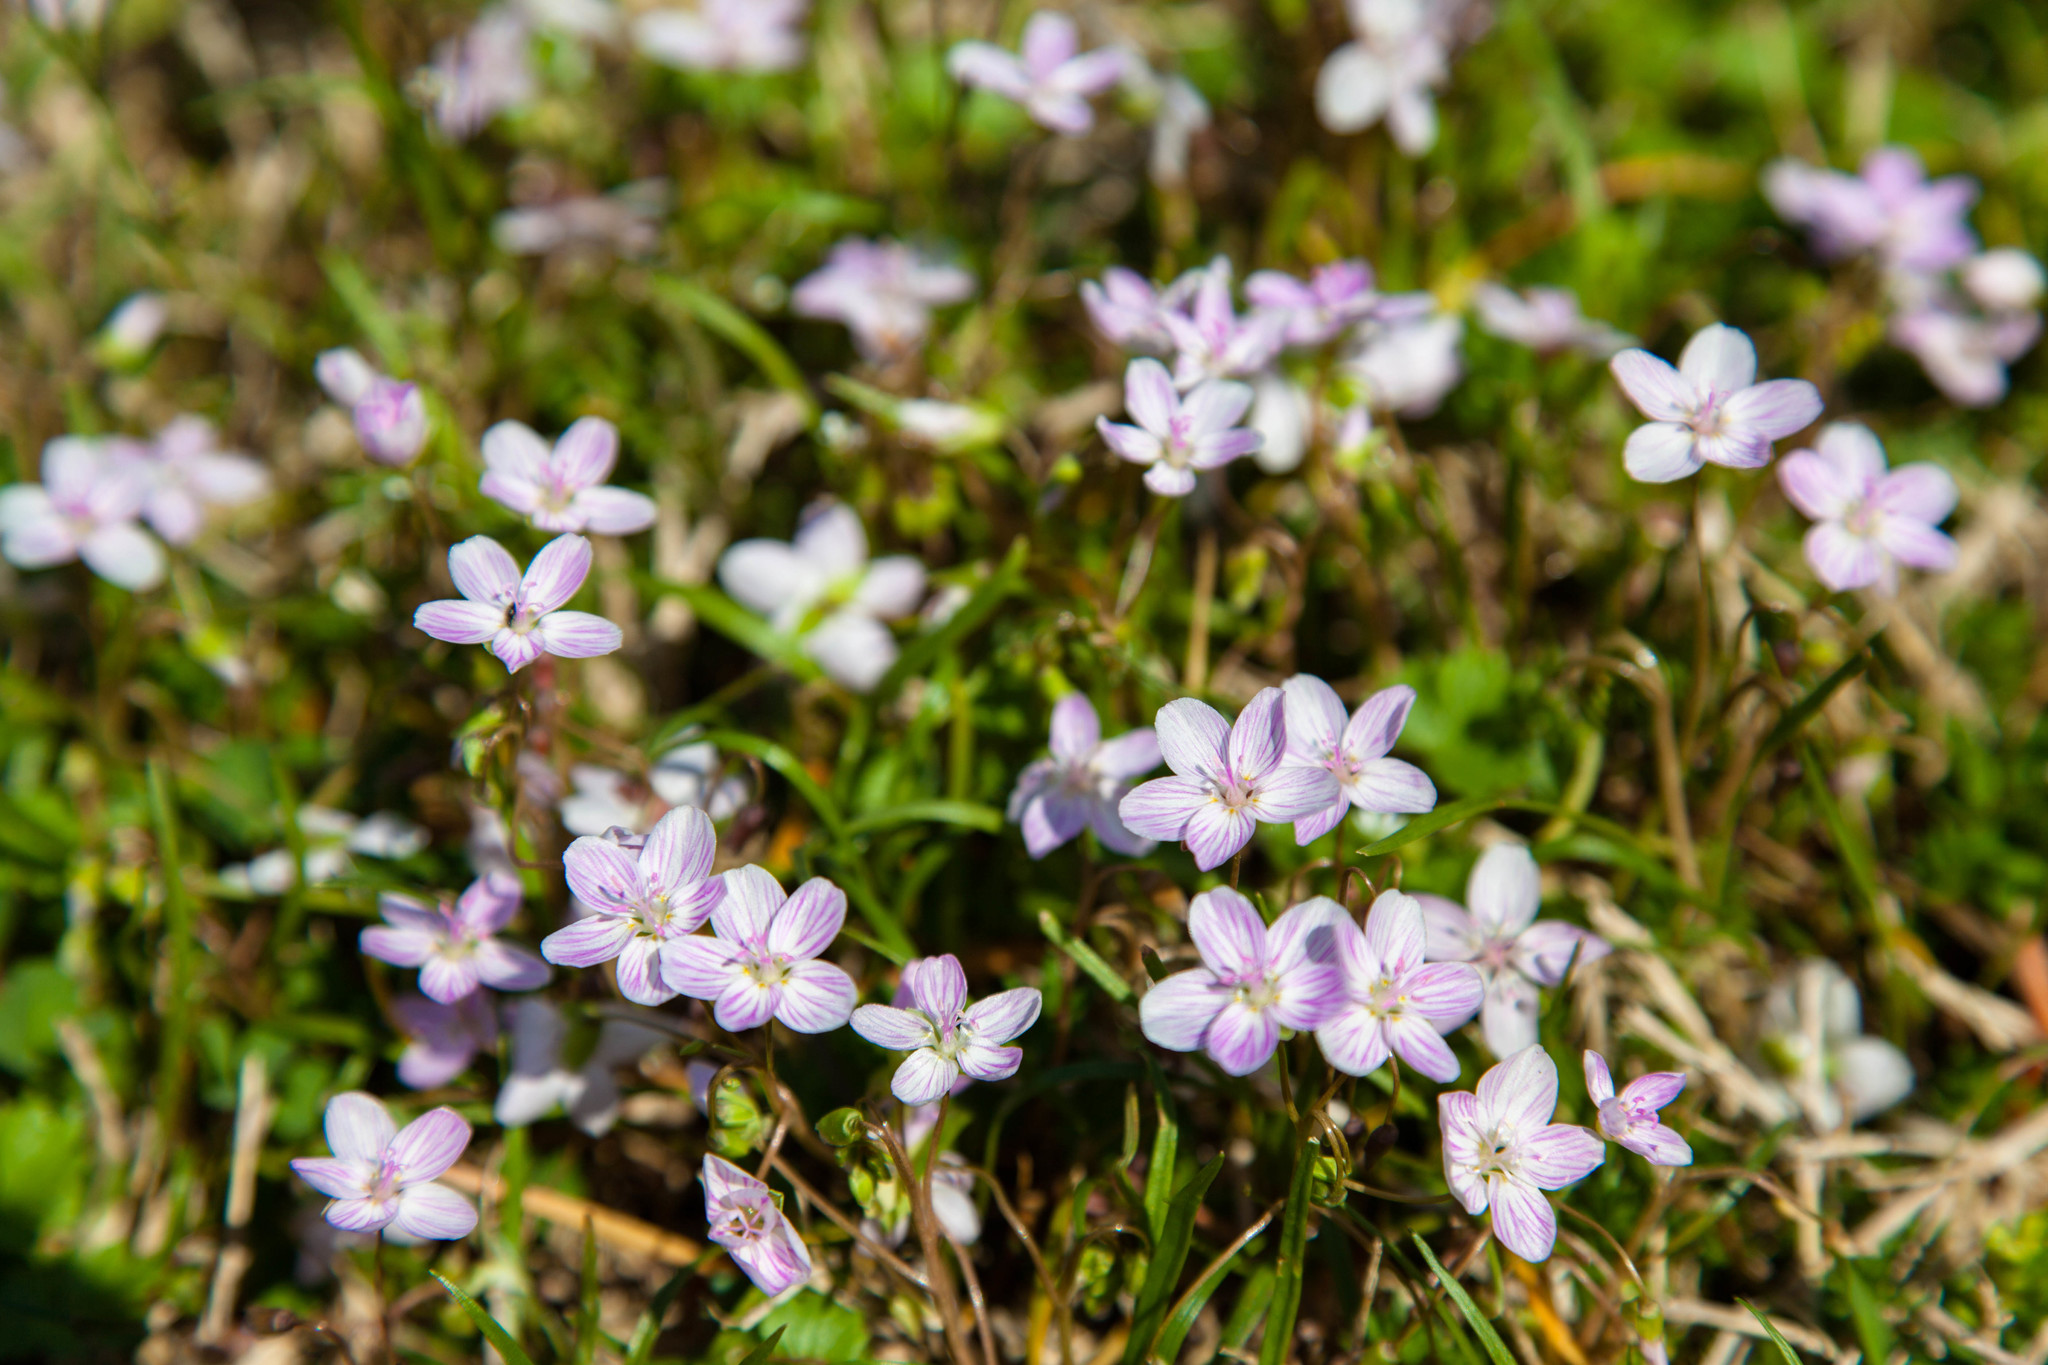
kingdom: Plantae
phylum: Tracheophyta
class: Magnoliopsida
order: Caryophyllales
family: Montiaceae
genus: Claytonia
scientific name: Claytonia virginica
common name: Virginia springbeauty
